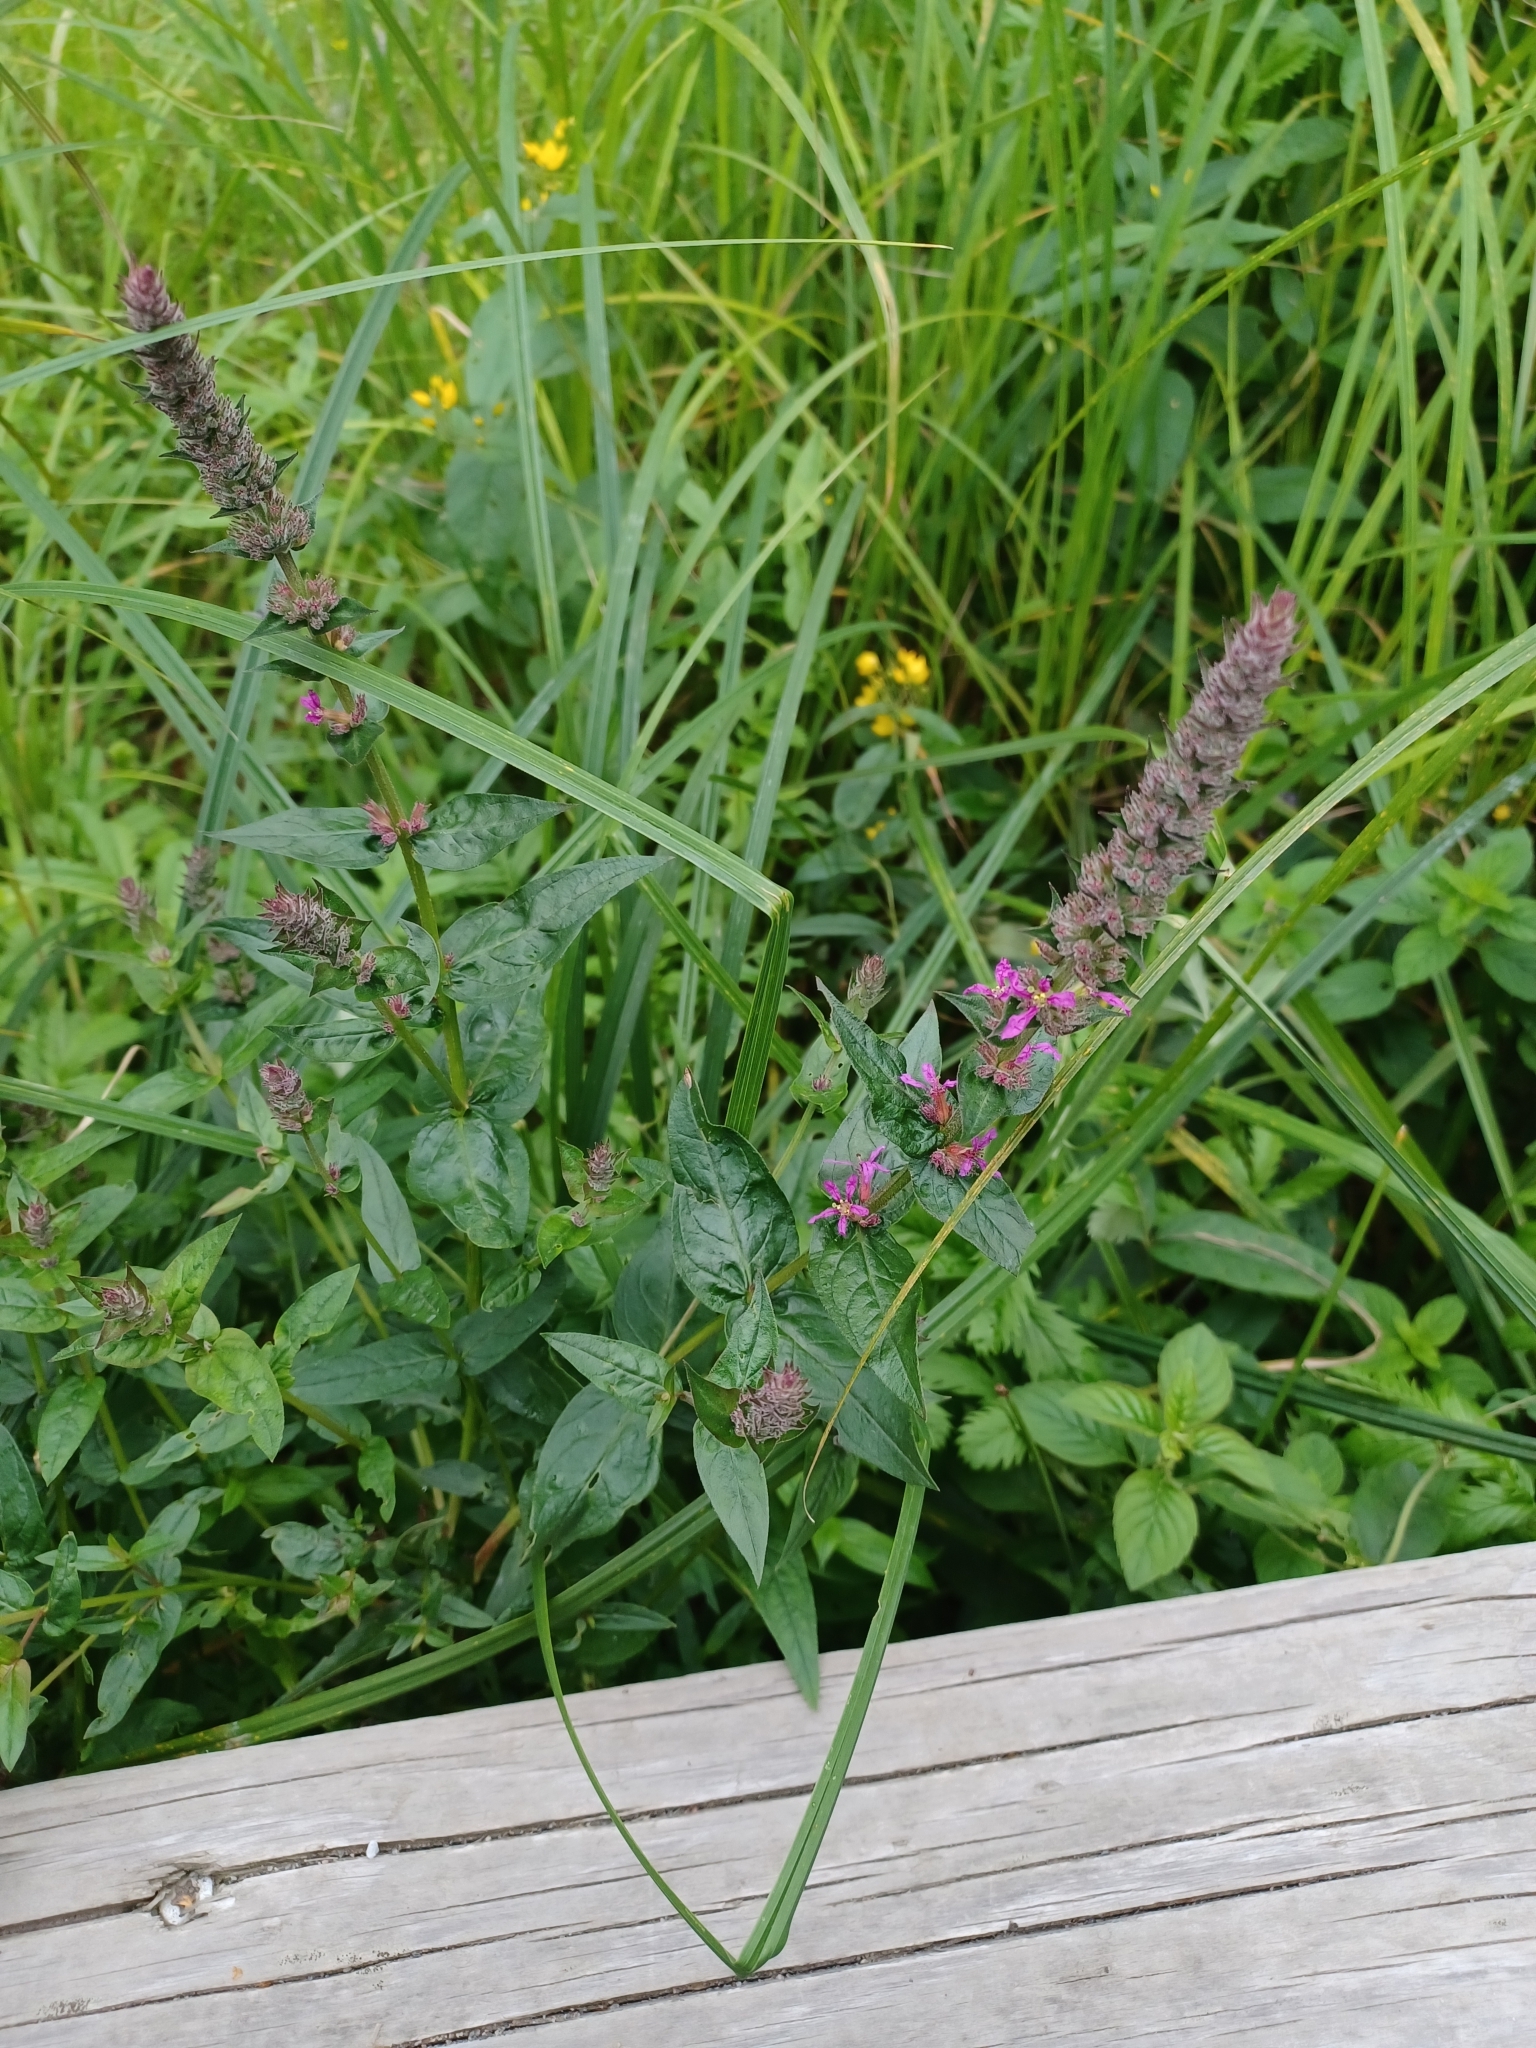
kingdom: Plantae
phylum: Tracheophyta
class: Magnoliopsida
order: Myrtales
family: Lythraceae
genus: Lythrum
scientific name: Lythrum salicaria
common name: Purple loosestrife
